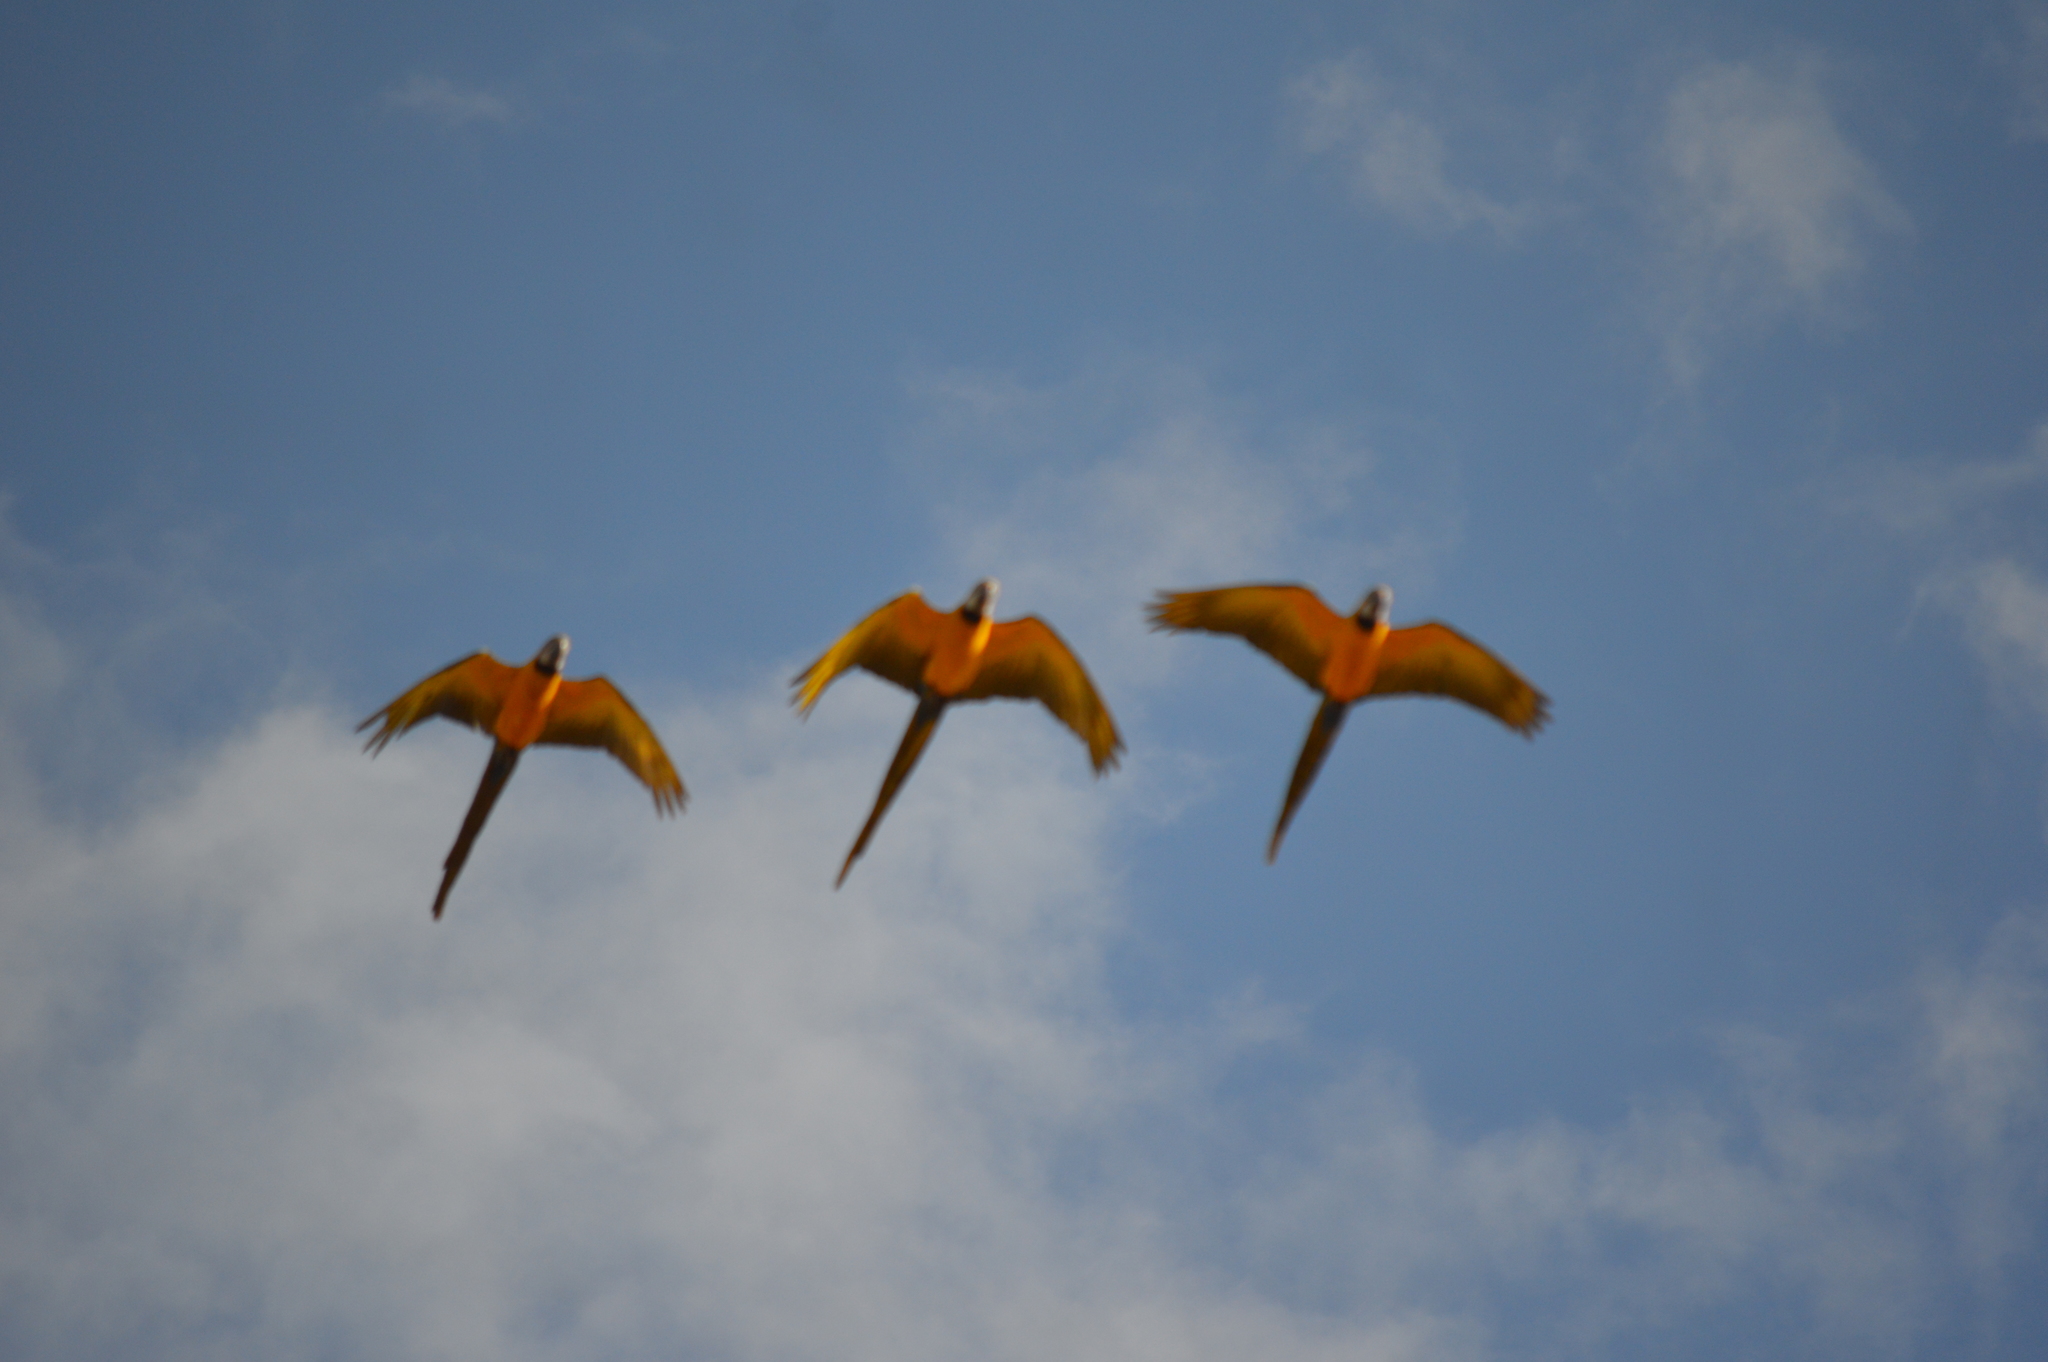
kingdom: Animalia
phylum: Chordata
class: Aves
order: Psittaciformes
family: Psittacidae
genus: Ara
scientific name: Ara ararauna
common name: Blue-and-yellow macaw
